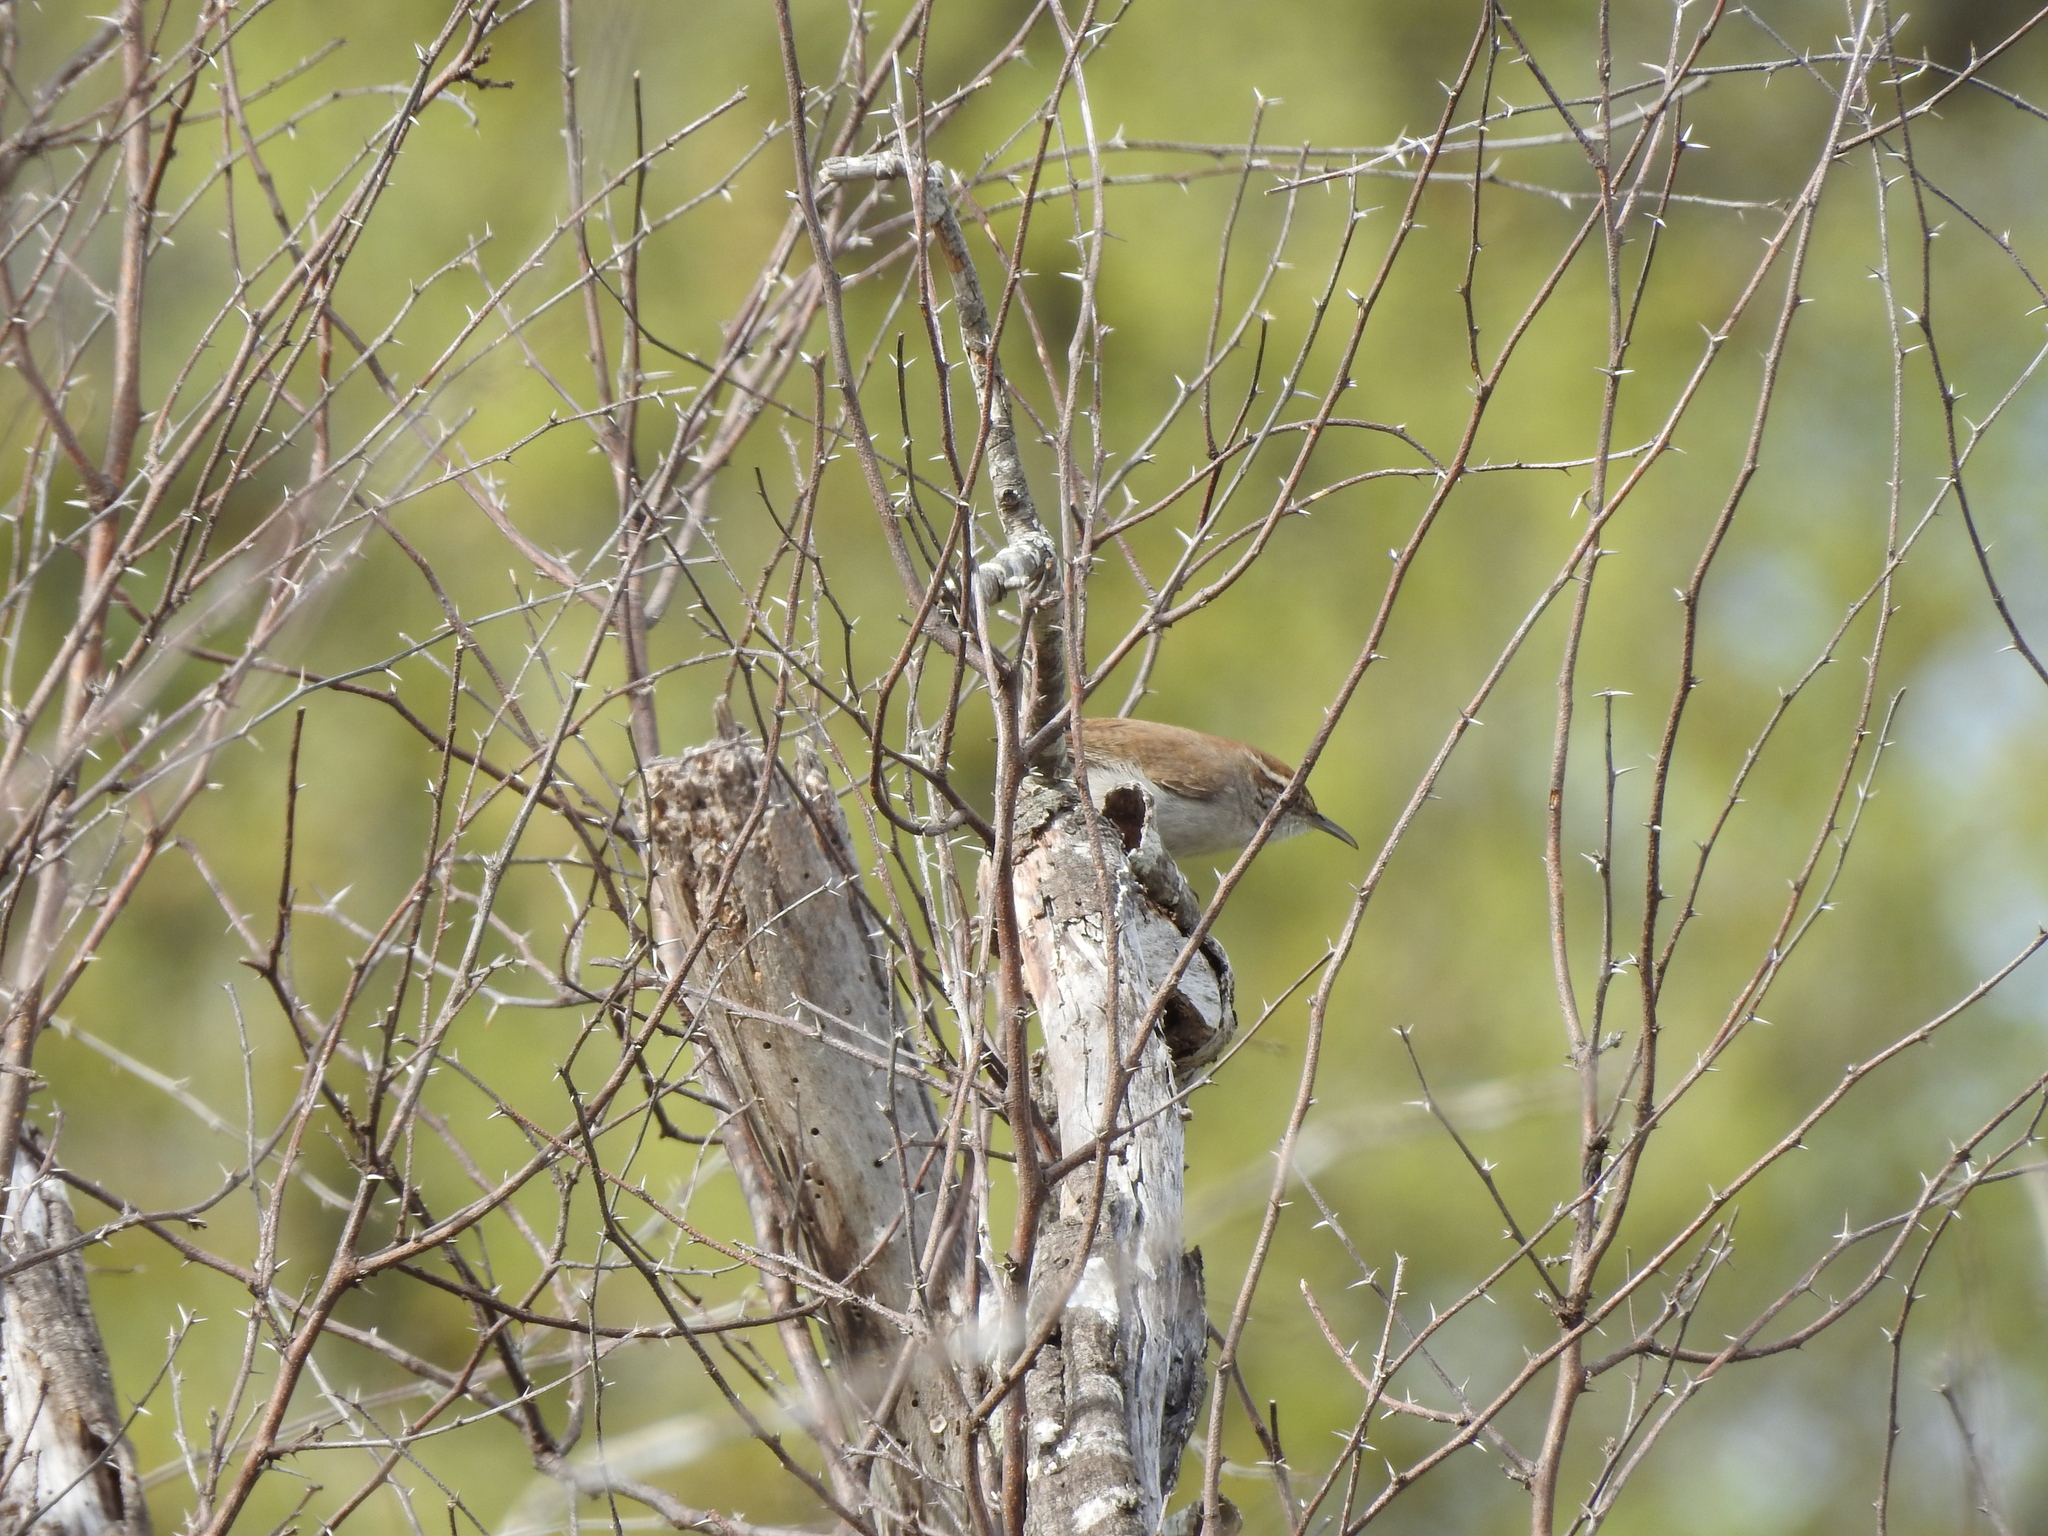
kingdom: Animalia
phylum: Chordata
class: Aves
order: Passeriformes
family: Troglodytidae
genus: Thryomanes
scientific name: Thryomanes bewickii
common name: Bewick's wren
